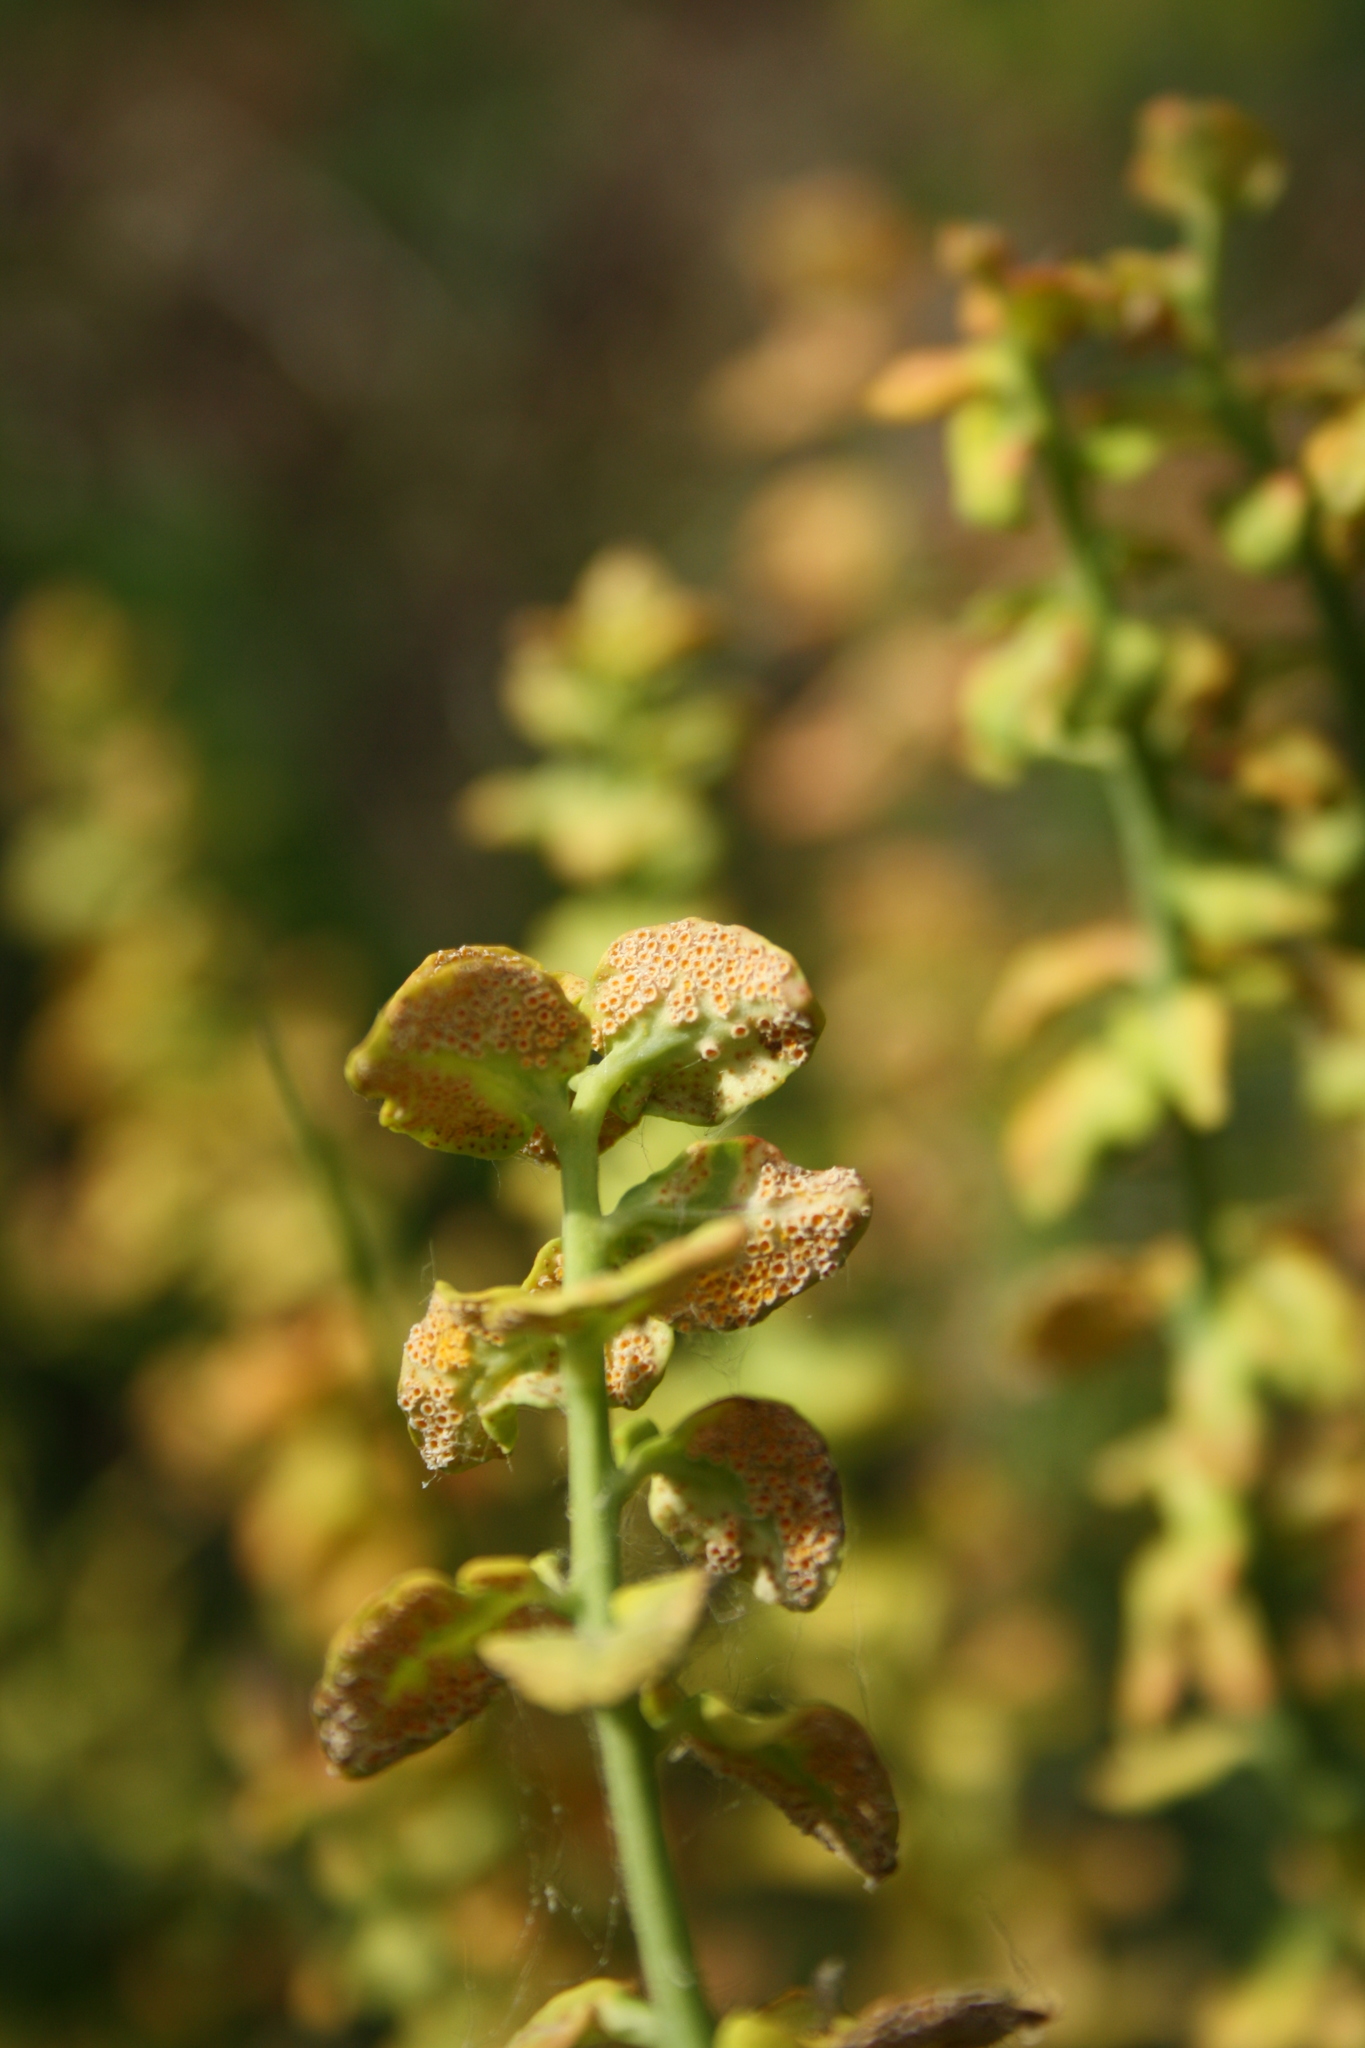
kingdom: Fungi
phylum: Basidiomycota
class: Pucciniomycetes
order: Pucciniales
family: Pucciniaceae
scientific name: Pucciniaceae
